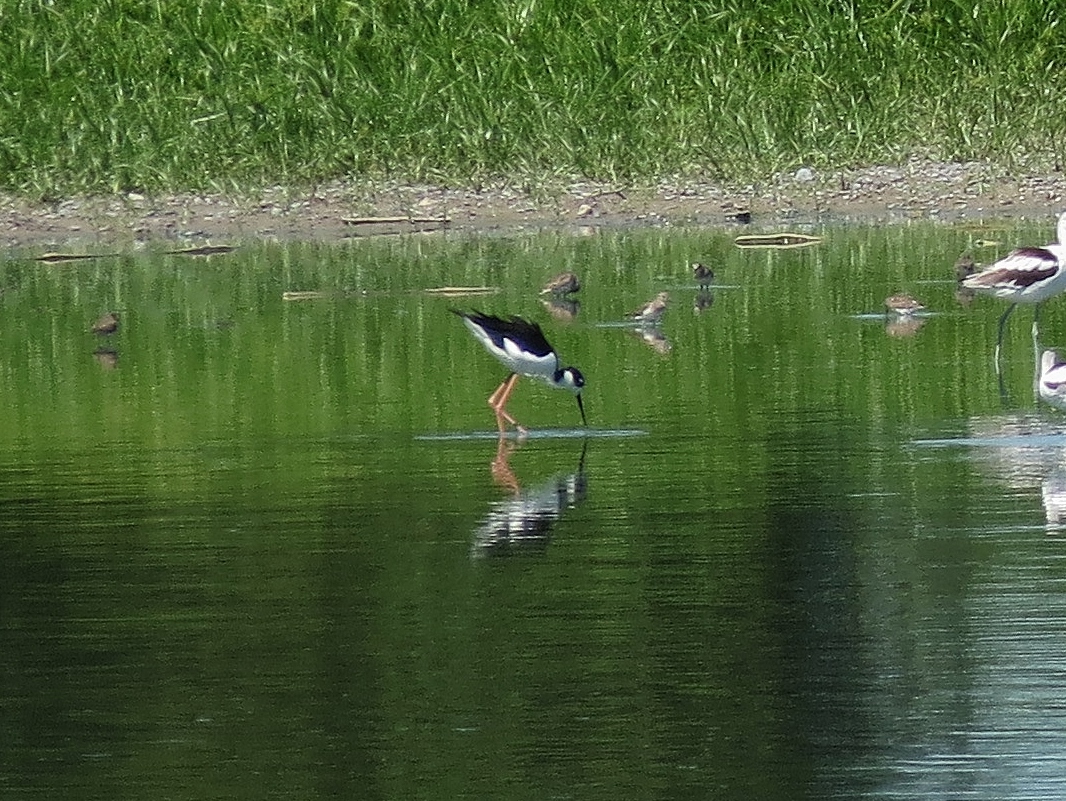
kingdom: Animalia
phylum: Chordata
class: Aves
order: Charadriiformes
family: Recurvirostridae
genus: Himantopus
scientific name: Himantopus mexicanus
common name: Black-necked stilt
